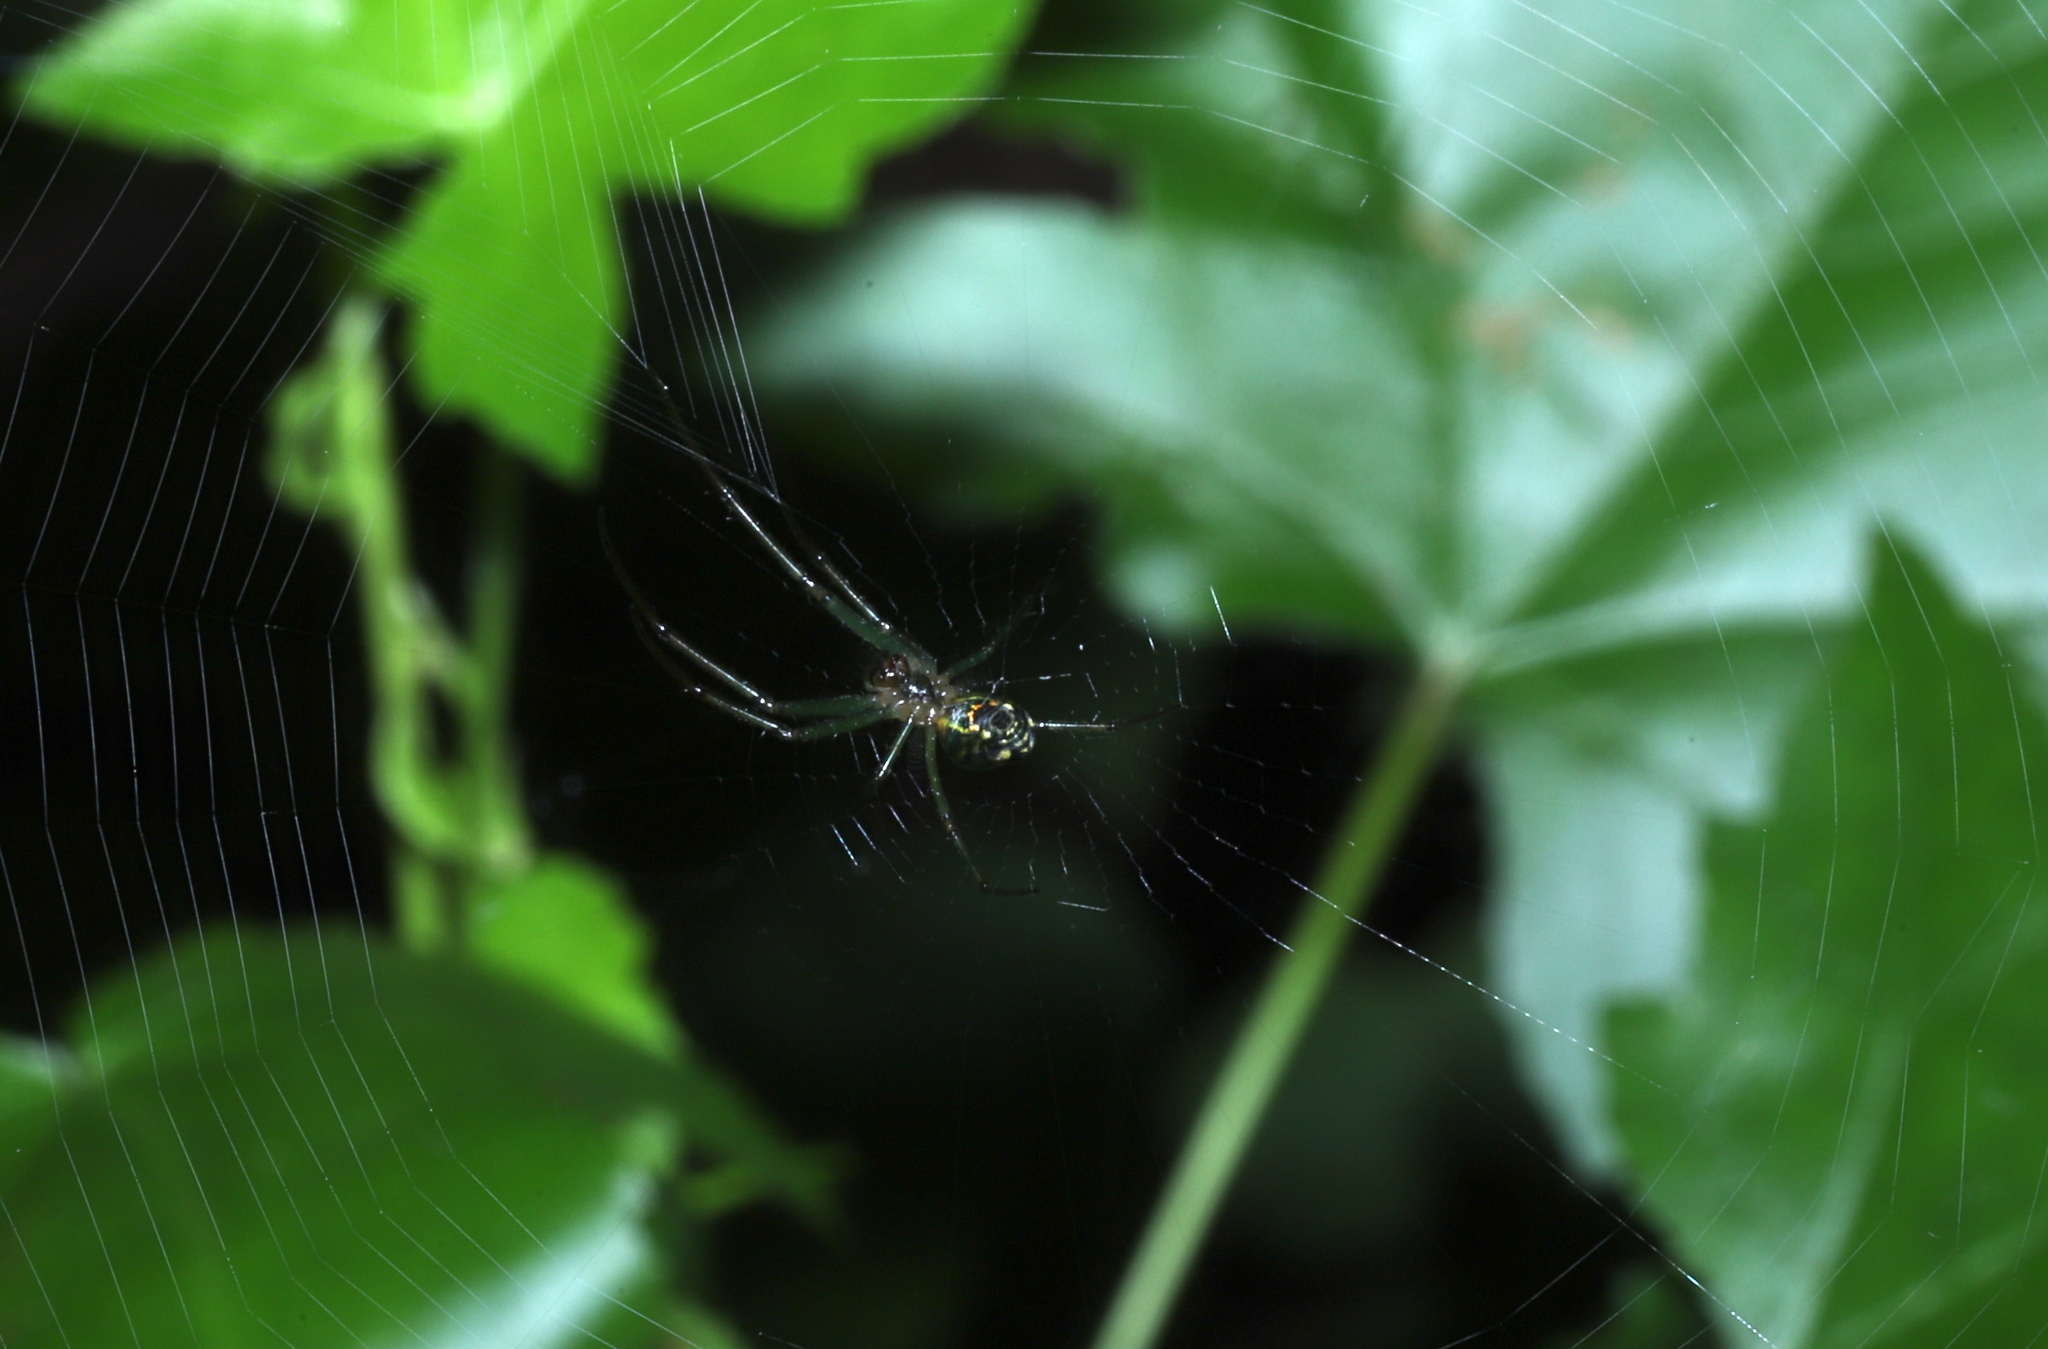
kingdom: Animalia
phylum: Arthropoda
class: Arachnida
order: Araneae
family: Tetragnathidae
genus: Leucauge
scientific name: Leucauge venusta
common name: Longjawed orb weavers
